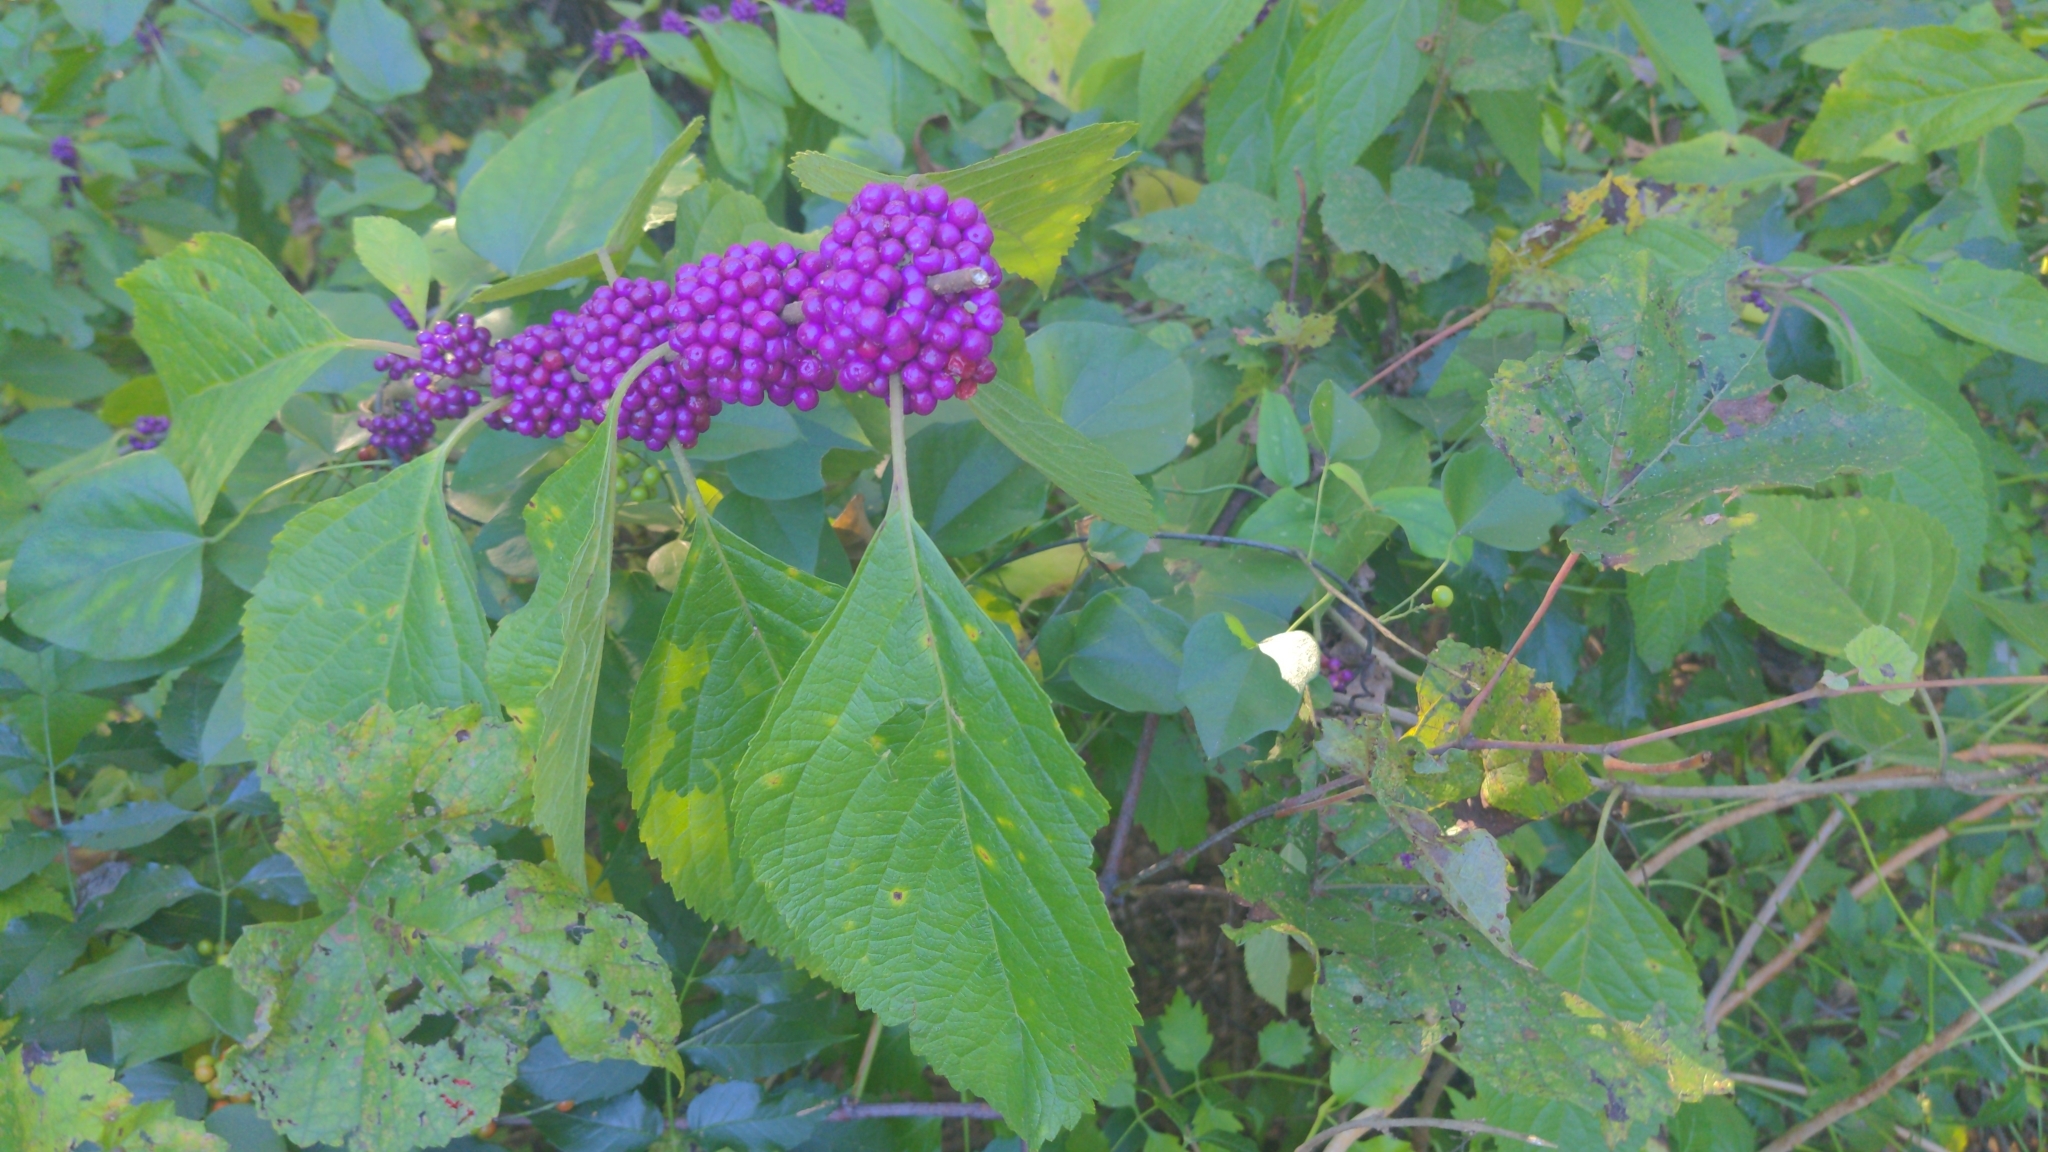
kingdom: Plantae
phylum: Tracheophyta
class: Magnoliopsida
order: Lamiales
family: Lamiaceae
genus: Callicarpa
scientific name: Callicarpa americana
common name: American beautyberry
